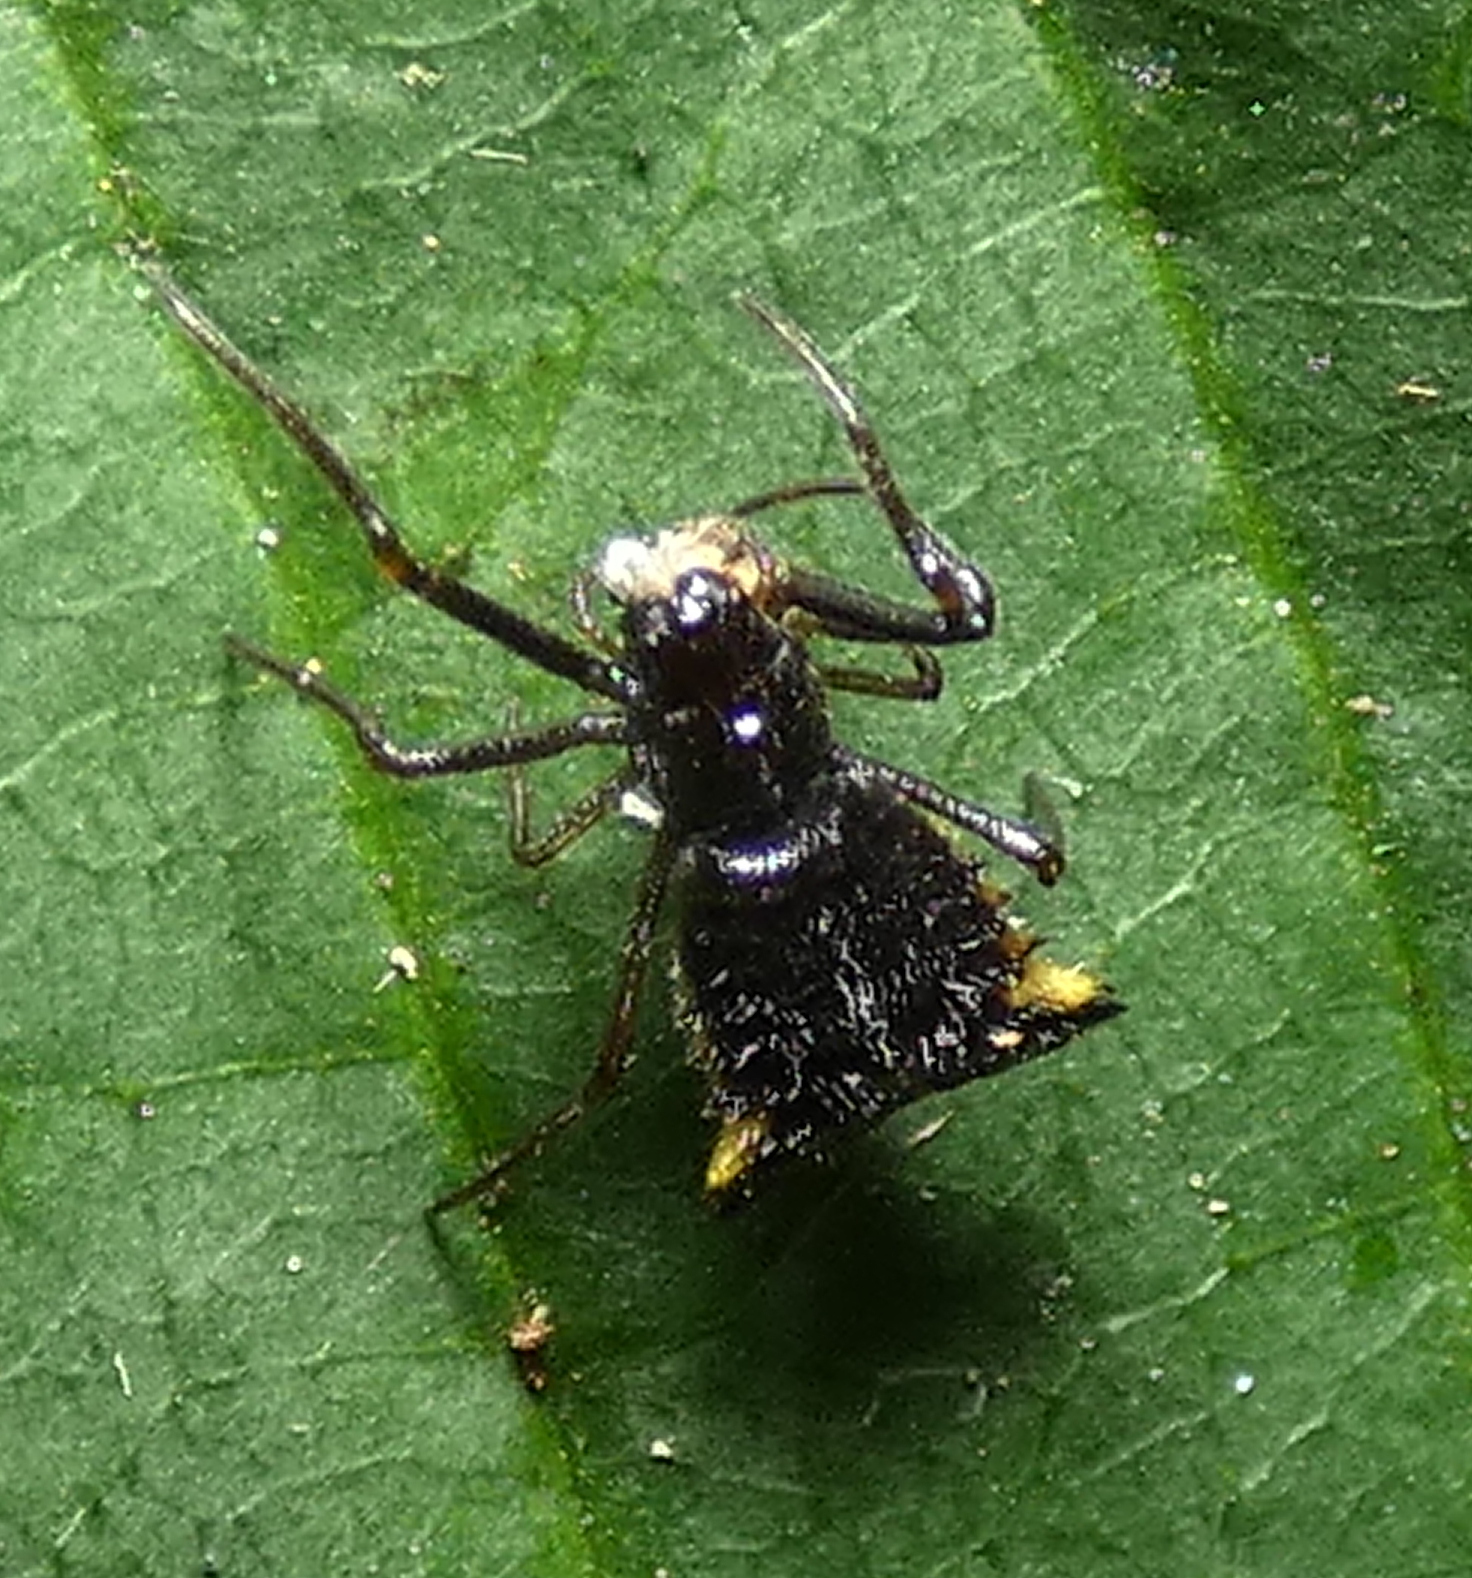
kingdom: Animalia
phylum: Arthropoda
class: Arachnida
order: Araneae
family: Araneidae
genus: Micrathena
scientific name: Micrathena triangularis
